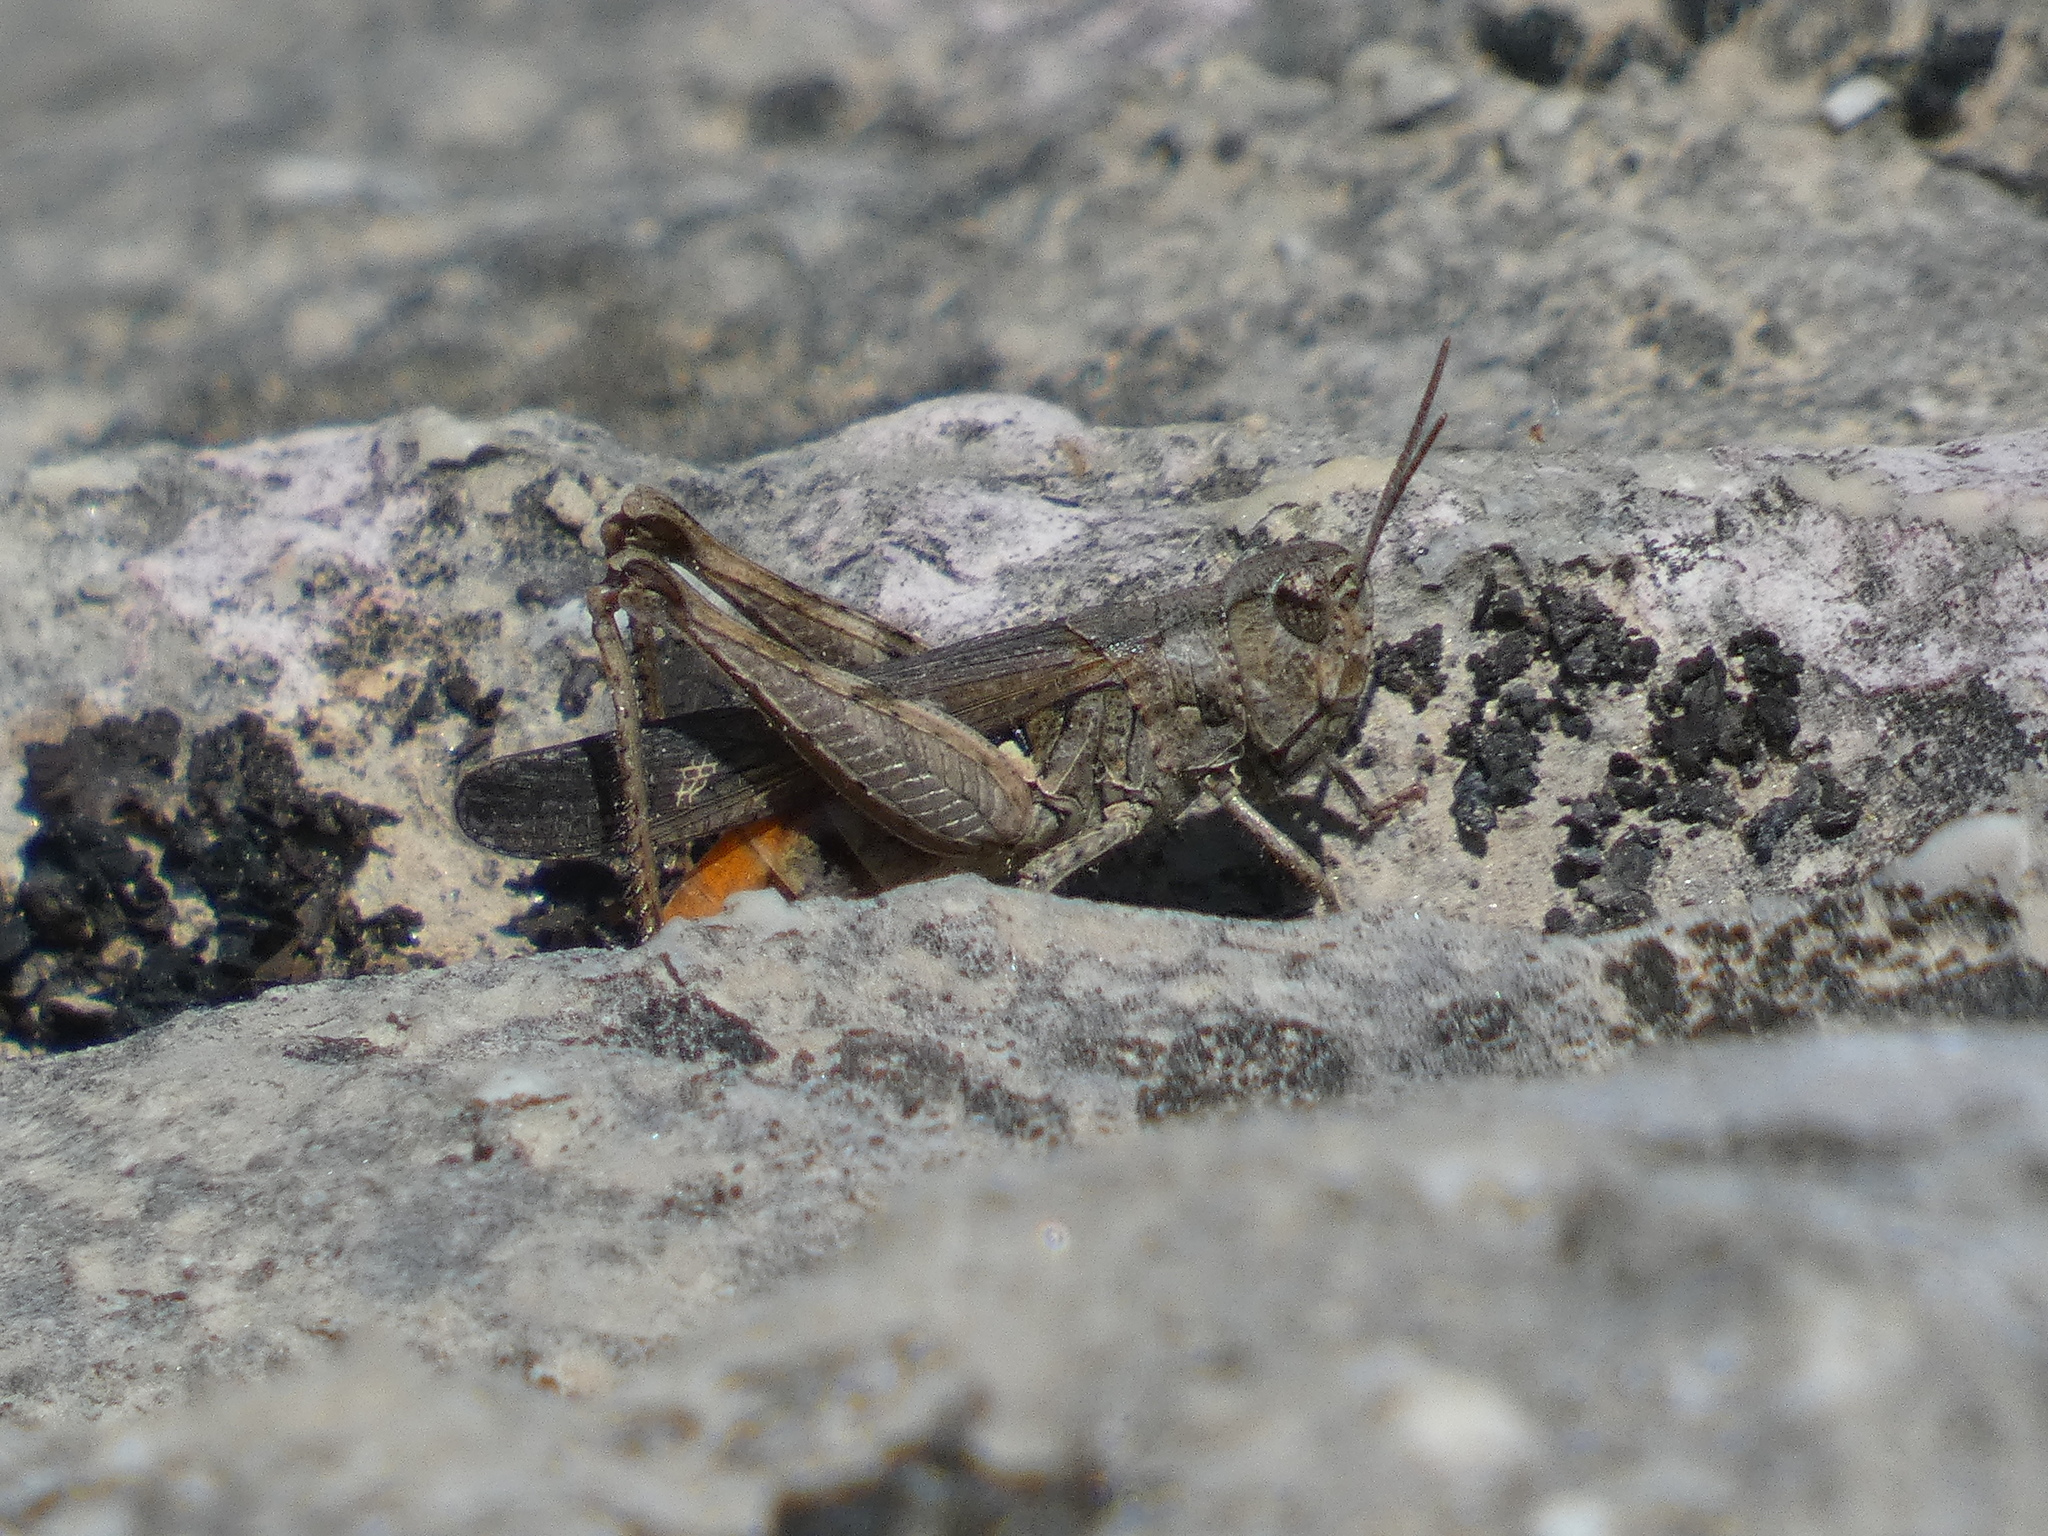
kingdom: Animalia
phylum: Arthropoda
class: Insecta
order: Orthoptera
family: Acrididae
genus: Omocestus
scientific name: Omocestus raymondi
